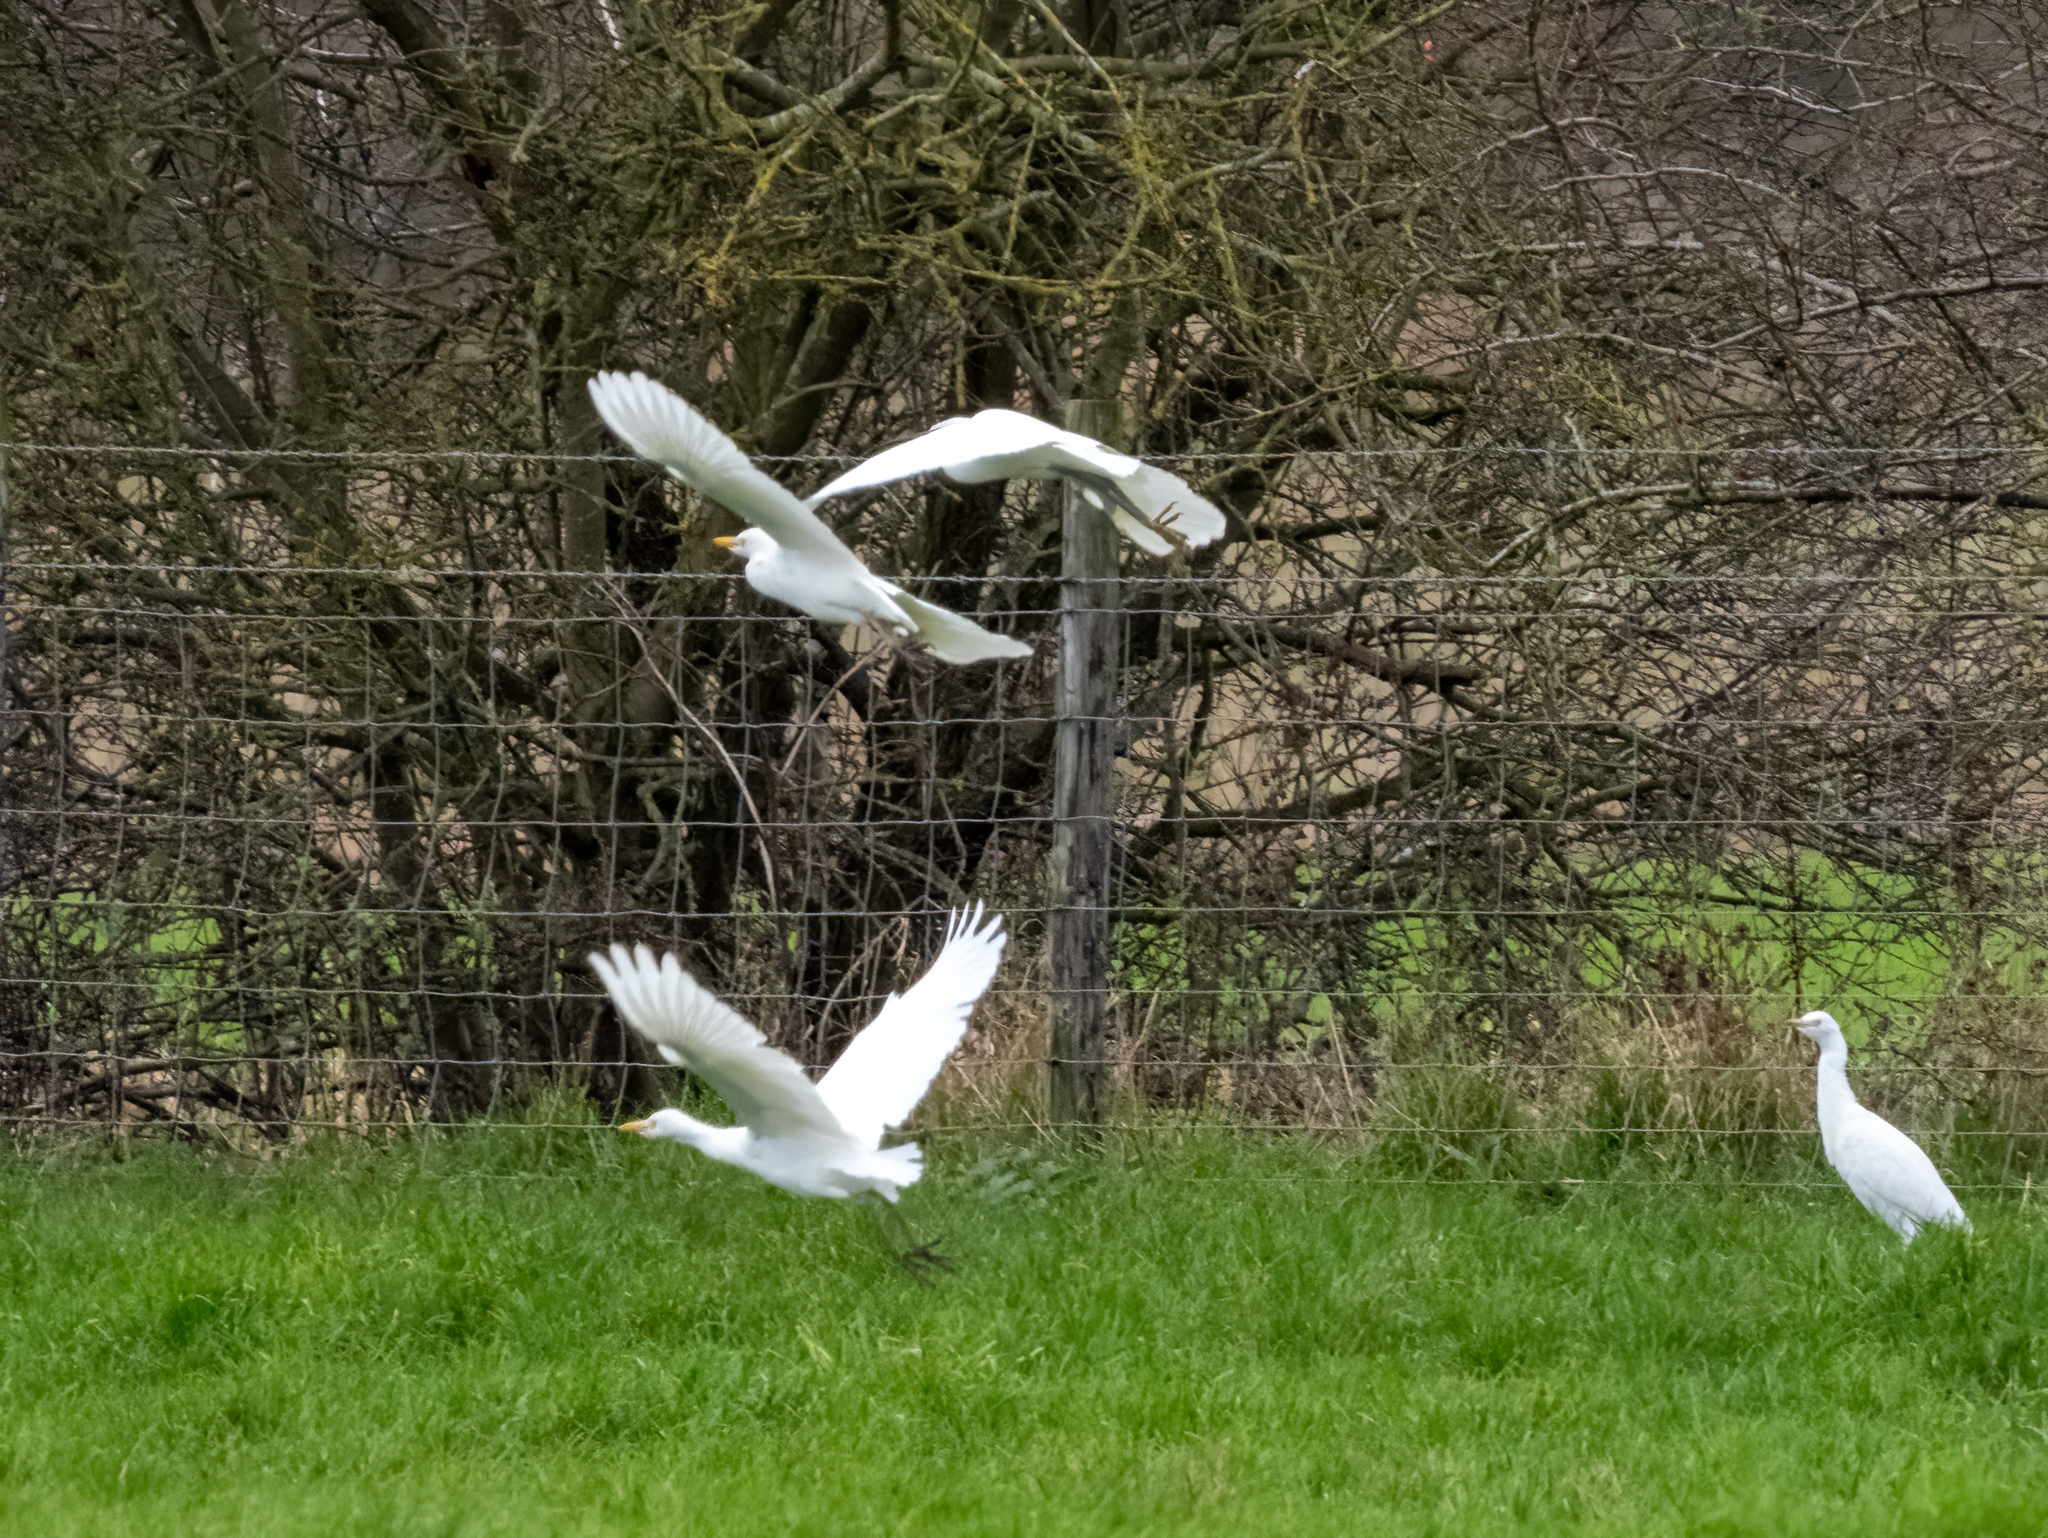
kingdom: Animalia
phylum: Chordata
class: Aves
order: Pelecaniformes
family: Ardeidae
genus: Bubulcus
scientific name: Bubulcus ibis
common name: Cattle egret
